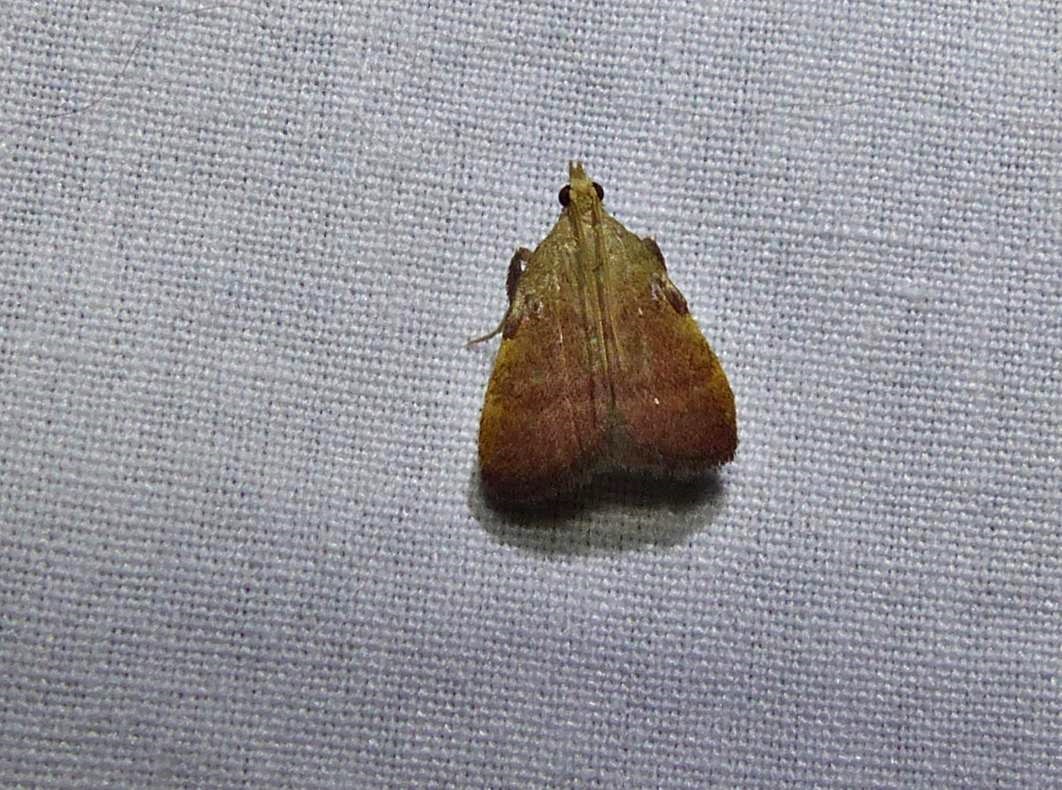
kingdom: Animalia
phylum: Arthropoda
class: Insecta
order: Lepidoptera
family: Pyralidae
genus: Condylolomia
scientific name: Condylolomia participialis
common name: Drab condylolomia moth
